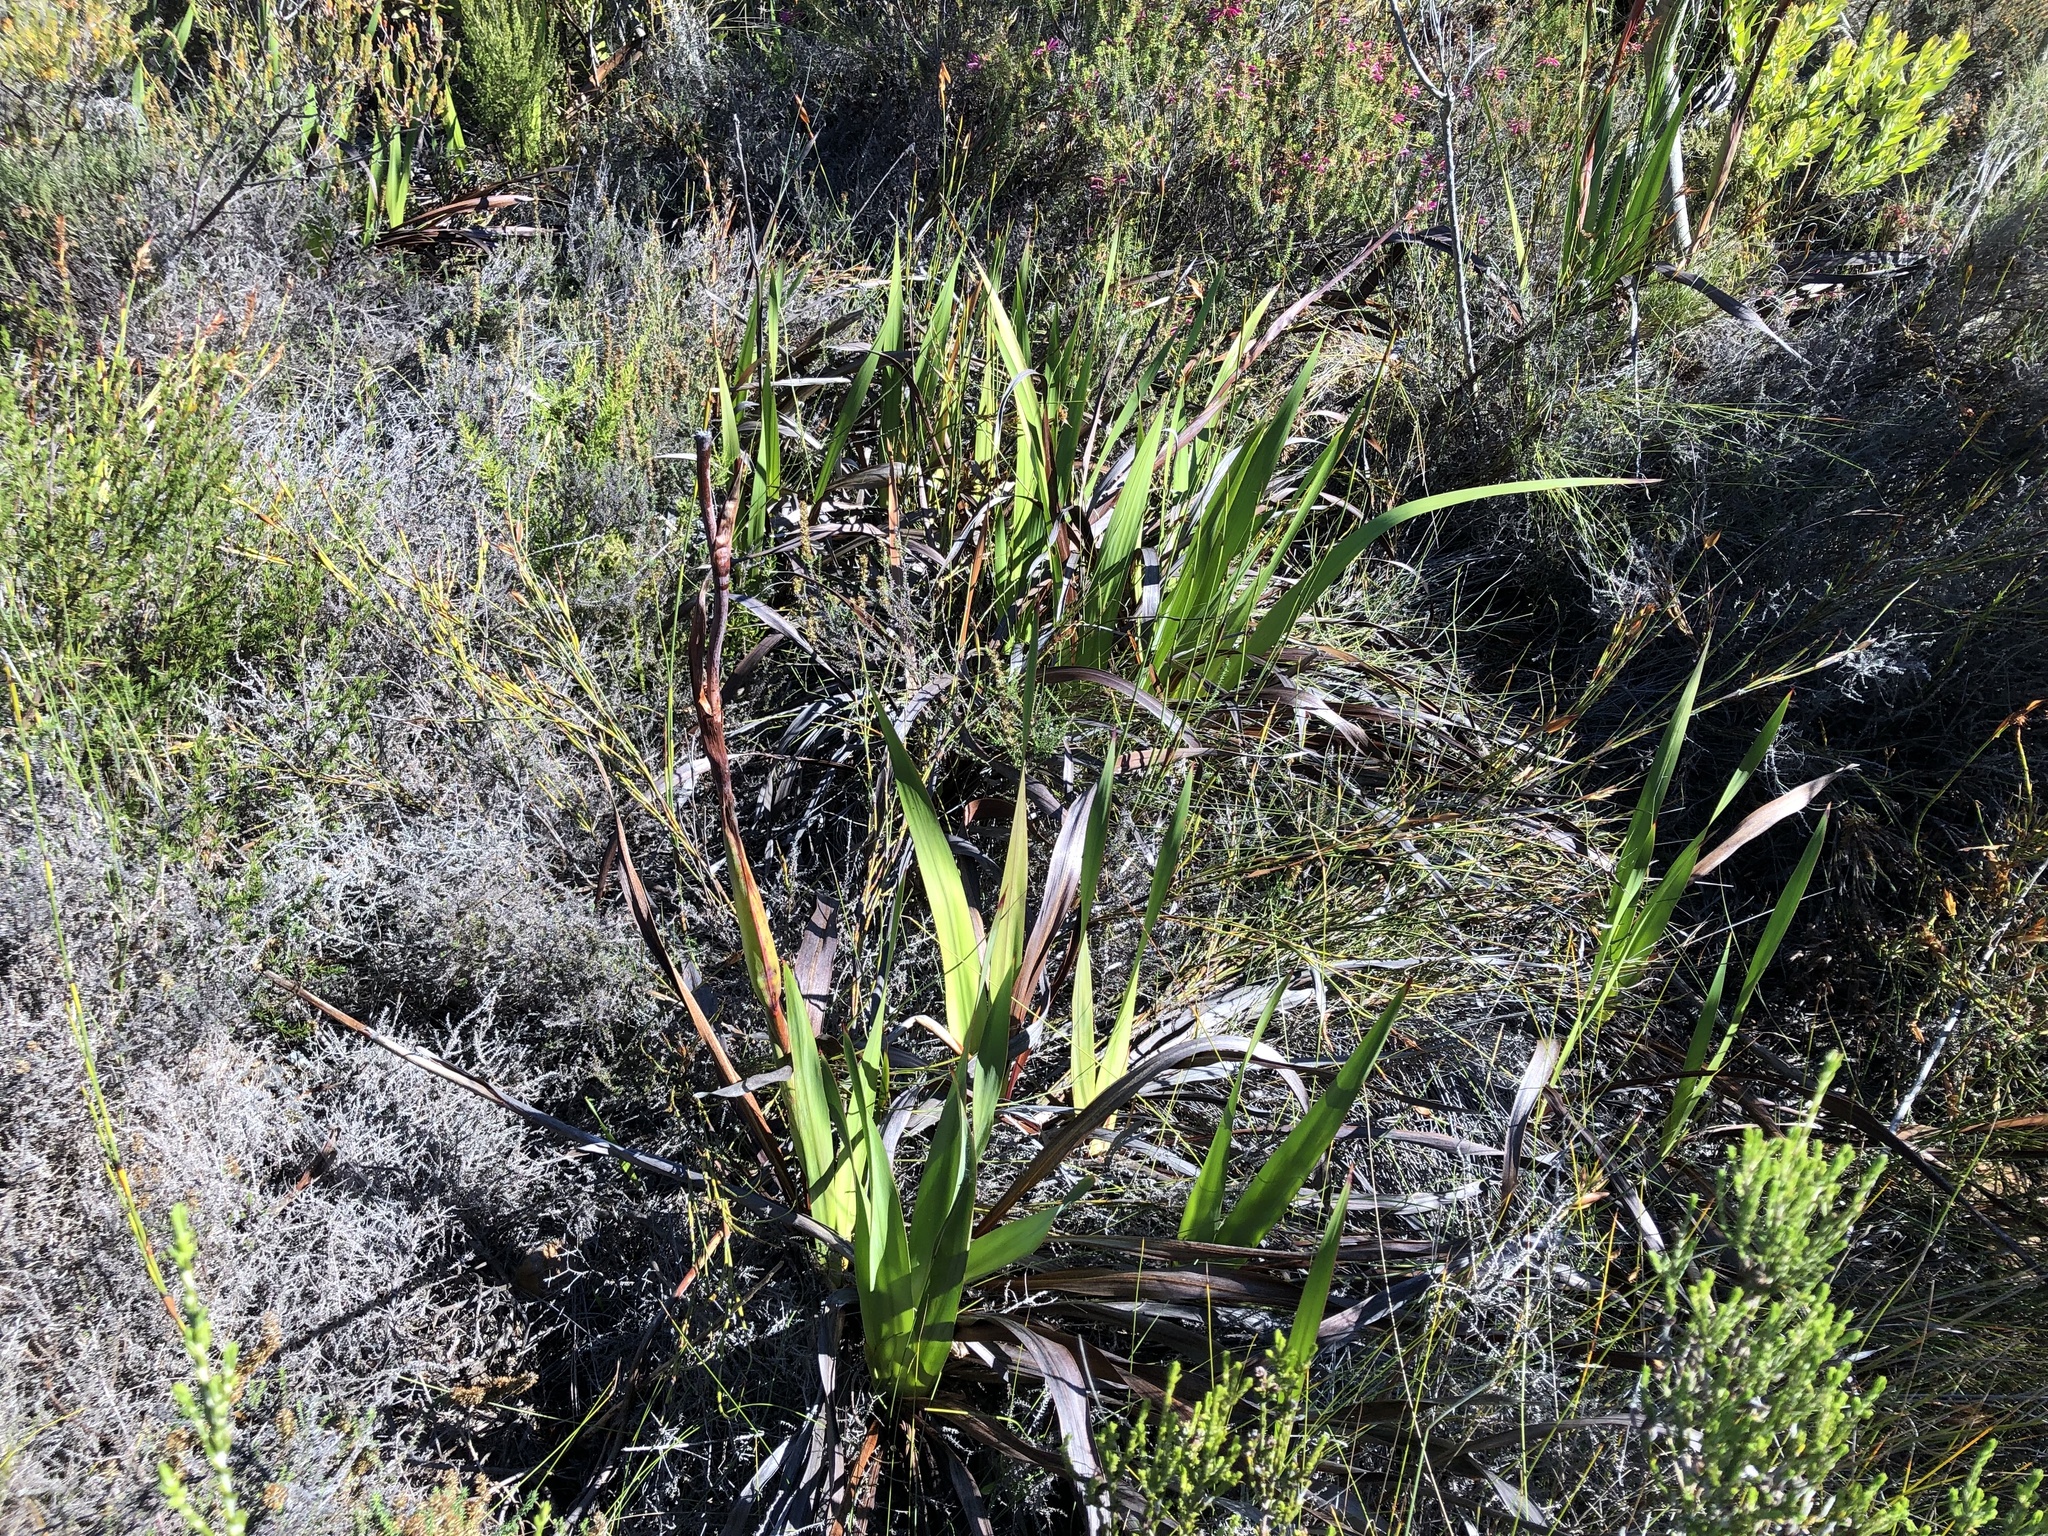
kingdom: Plantae
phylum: Tracheophyta
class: Liliopsida
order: Asparagales
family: Iridaceae
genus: Watsonia
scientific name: Watsonia tabularis
